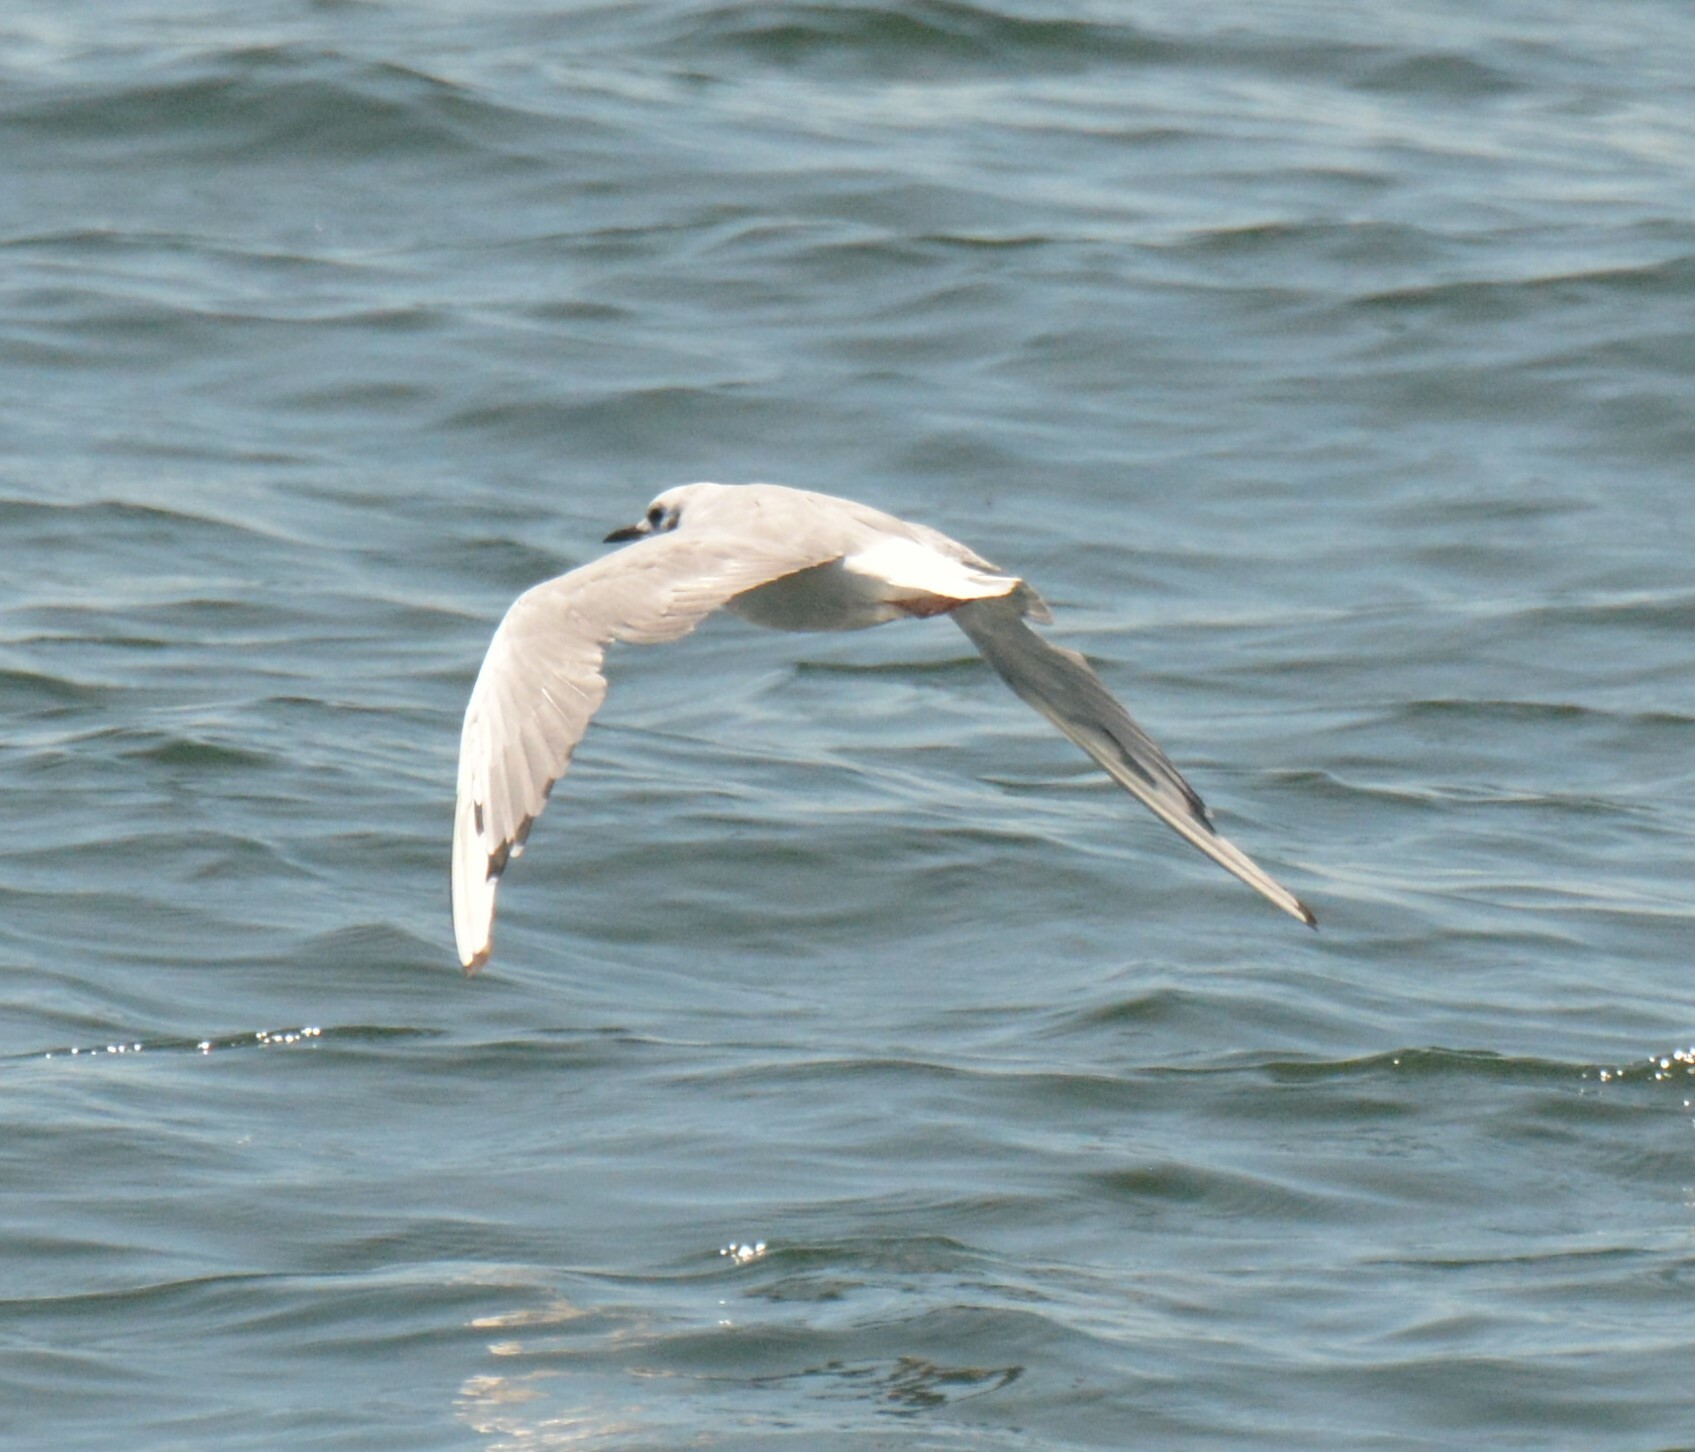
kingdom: Animalia
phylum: Chordata
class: Aves
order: Charadriiformes
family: Laridae
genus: Chroicocephalus
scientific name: Chroicocephalus philadelphia
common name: Bonaparte's gull
